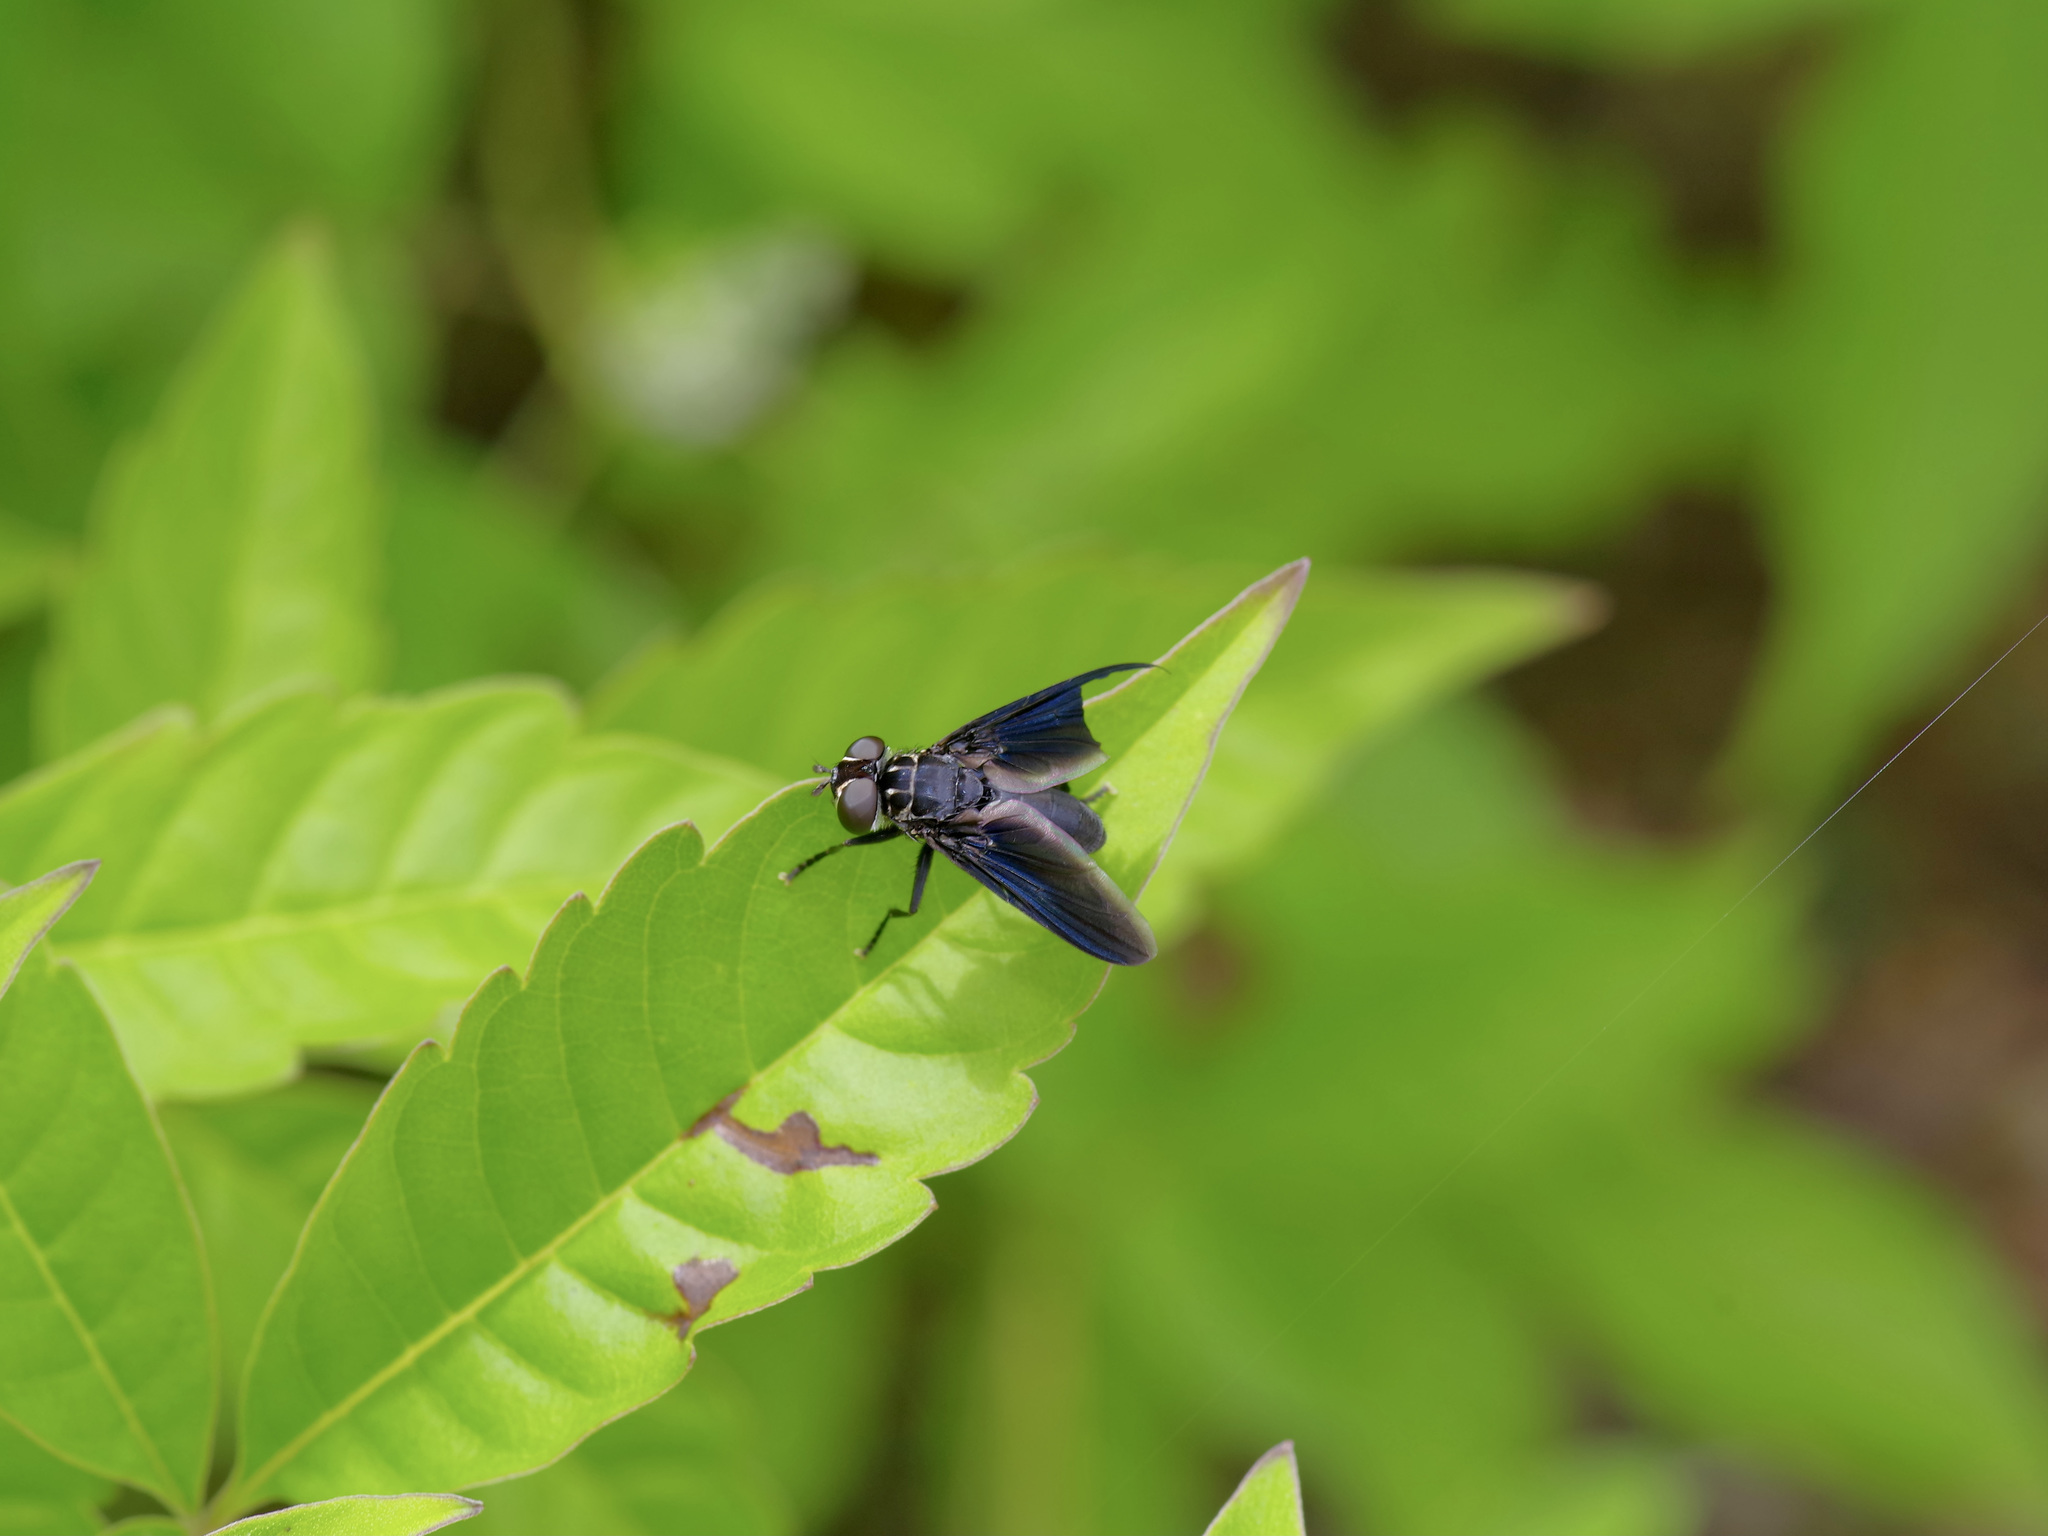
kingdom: Animalia
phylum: Arthropoda
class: Insecta
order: Diptera
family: Tachinidae
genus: Trichopoda
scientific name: Trichopoda lanipes
